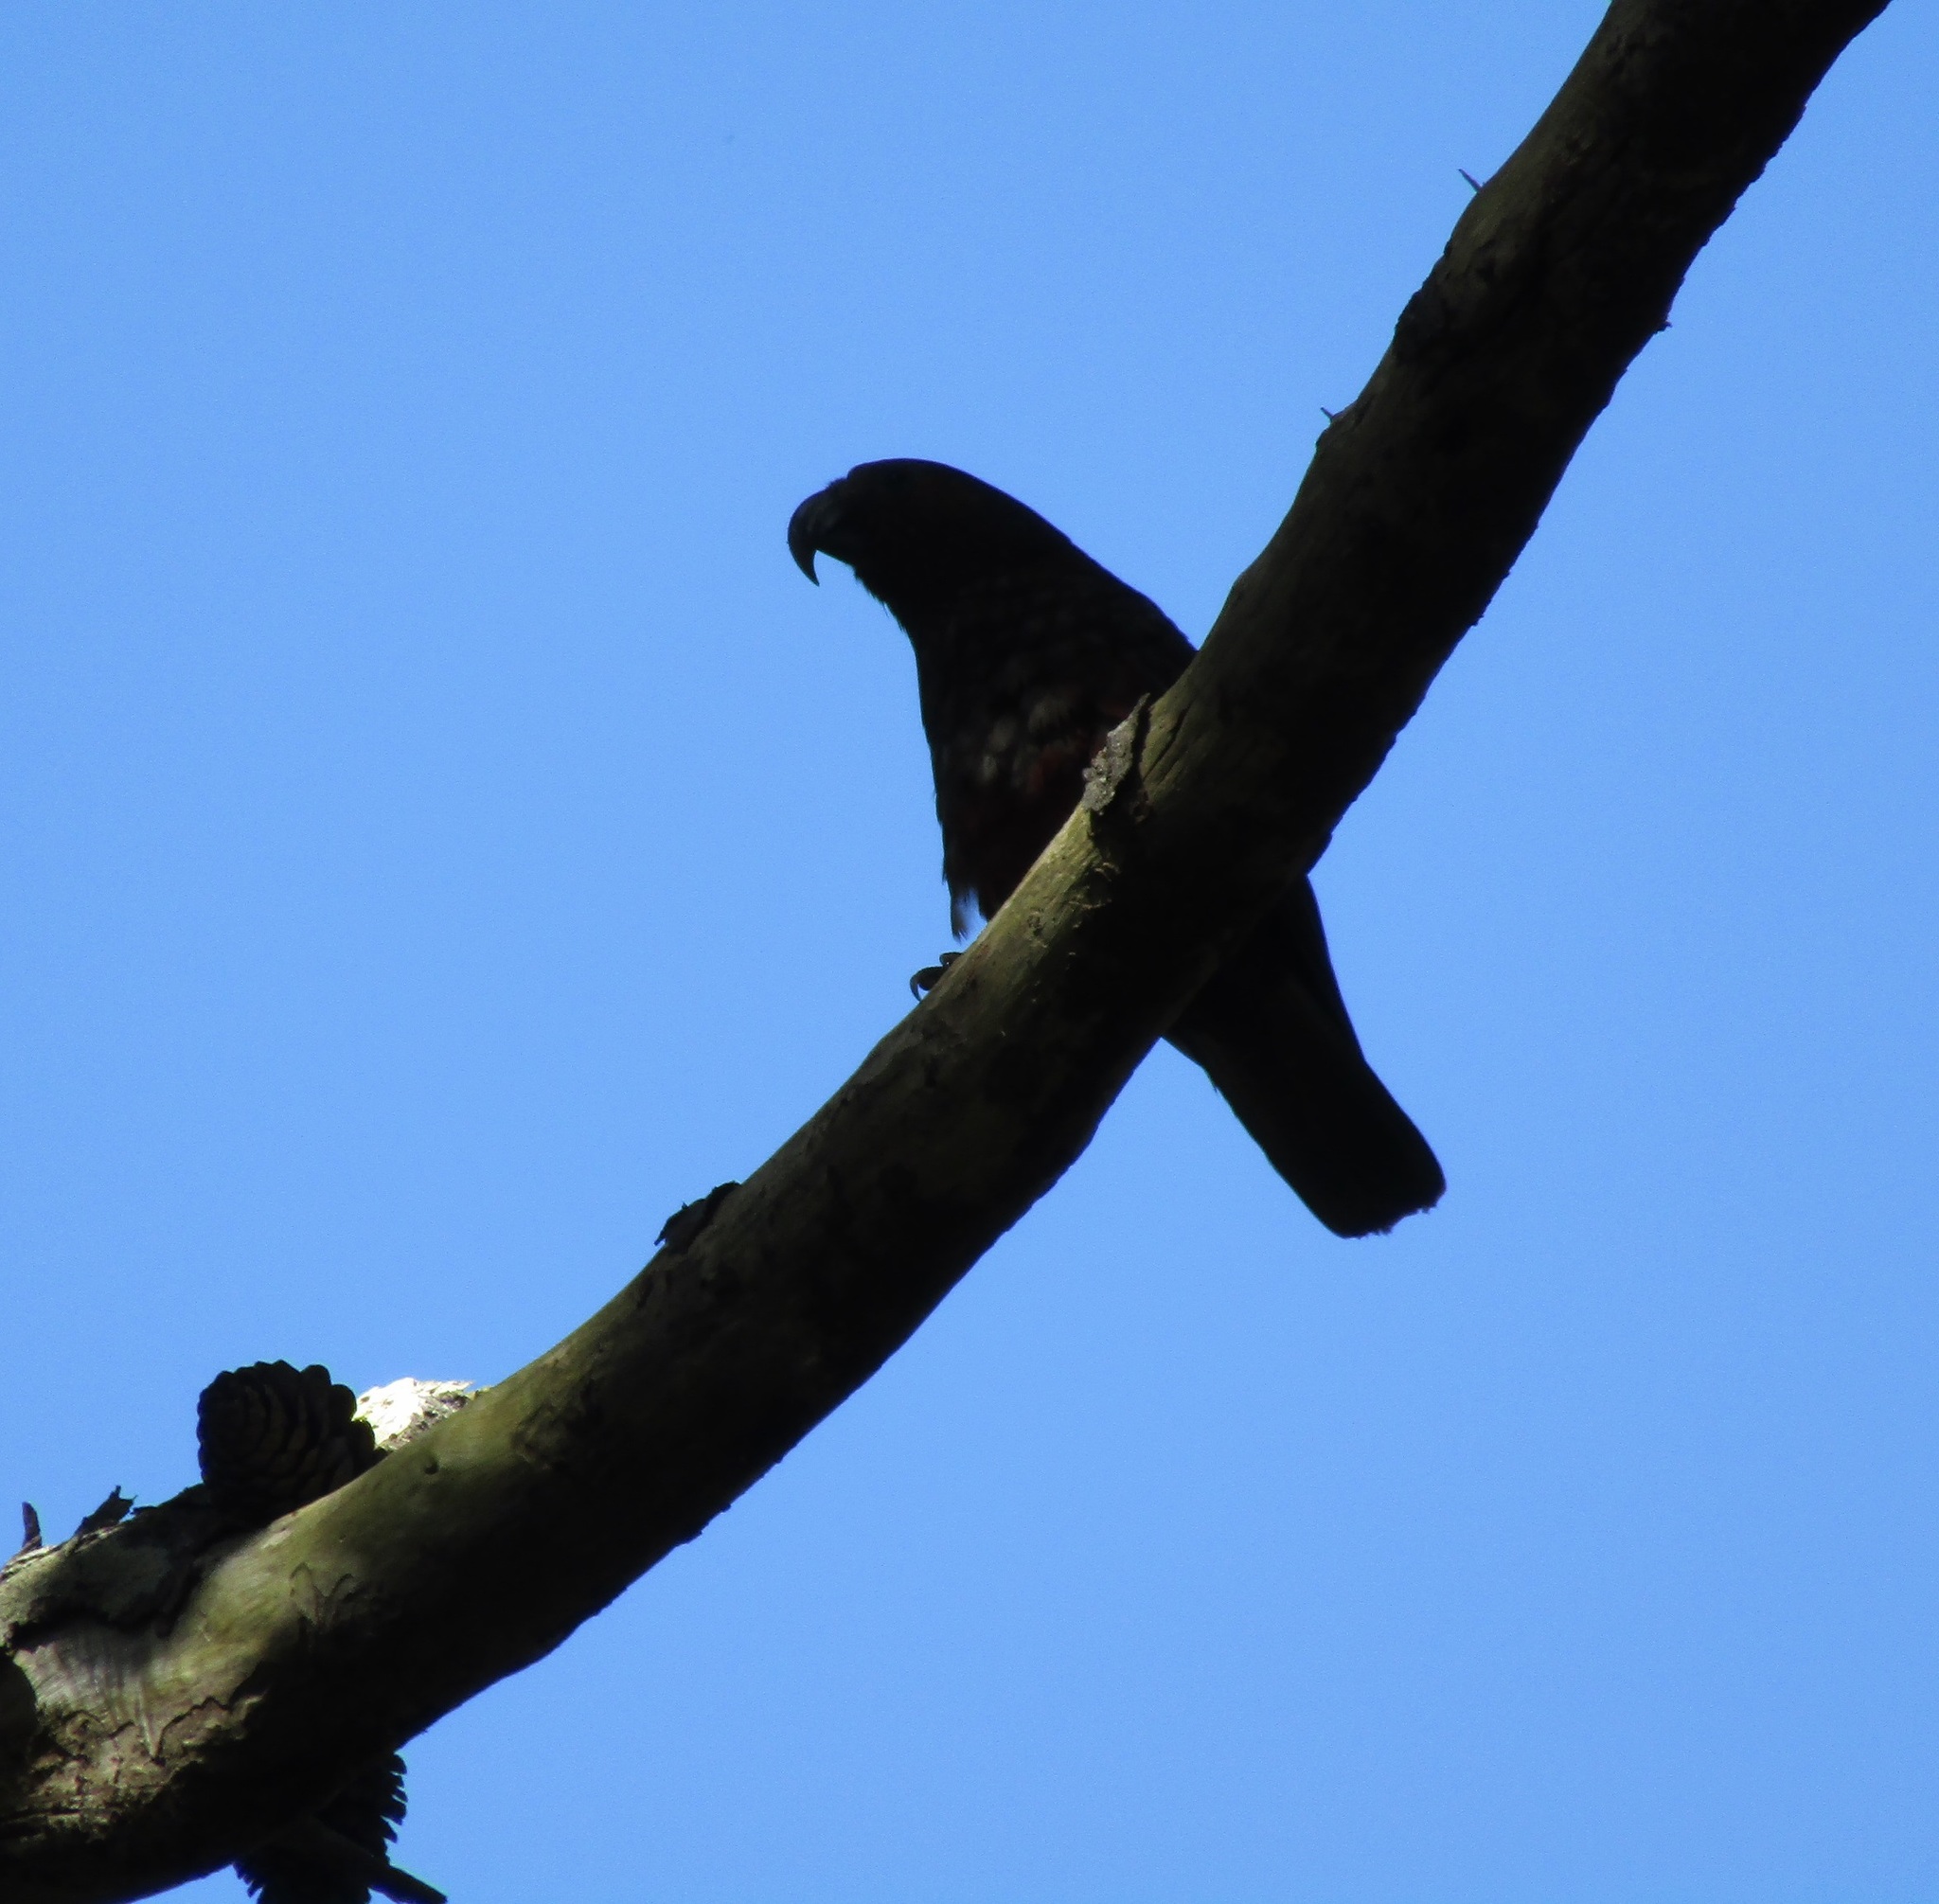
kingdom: Animalia
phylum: Chordata
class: Aves
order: Psittaciformes
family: Psittacidae
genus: Nestor
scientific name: Nestor meridionalis
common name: New zealand kaka
